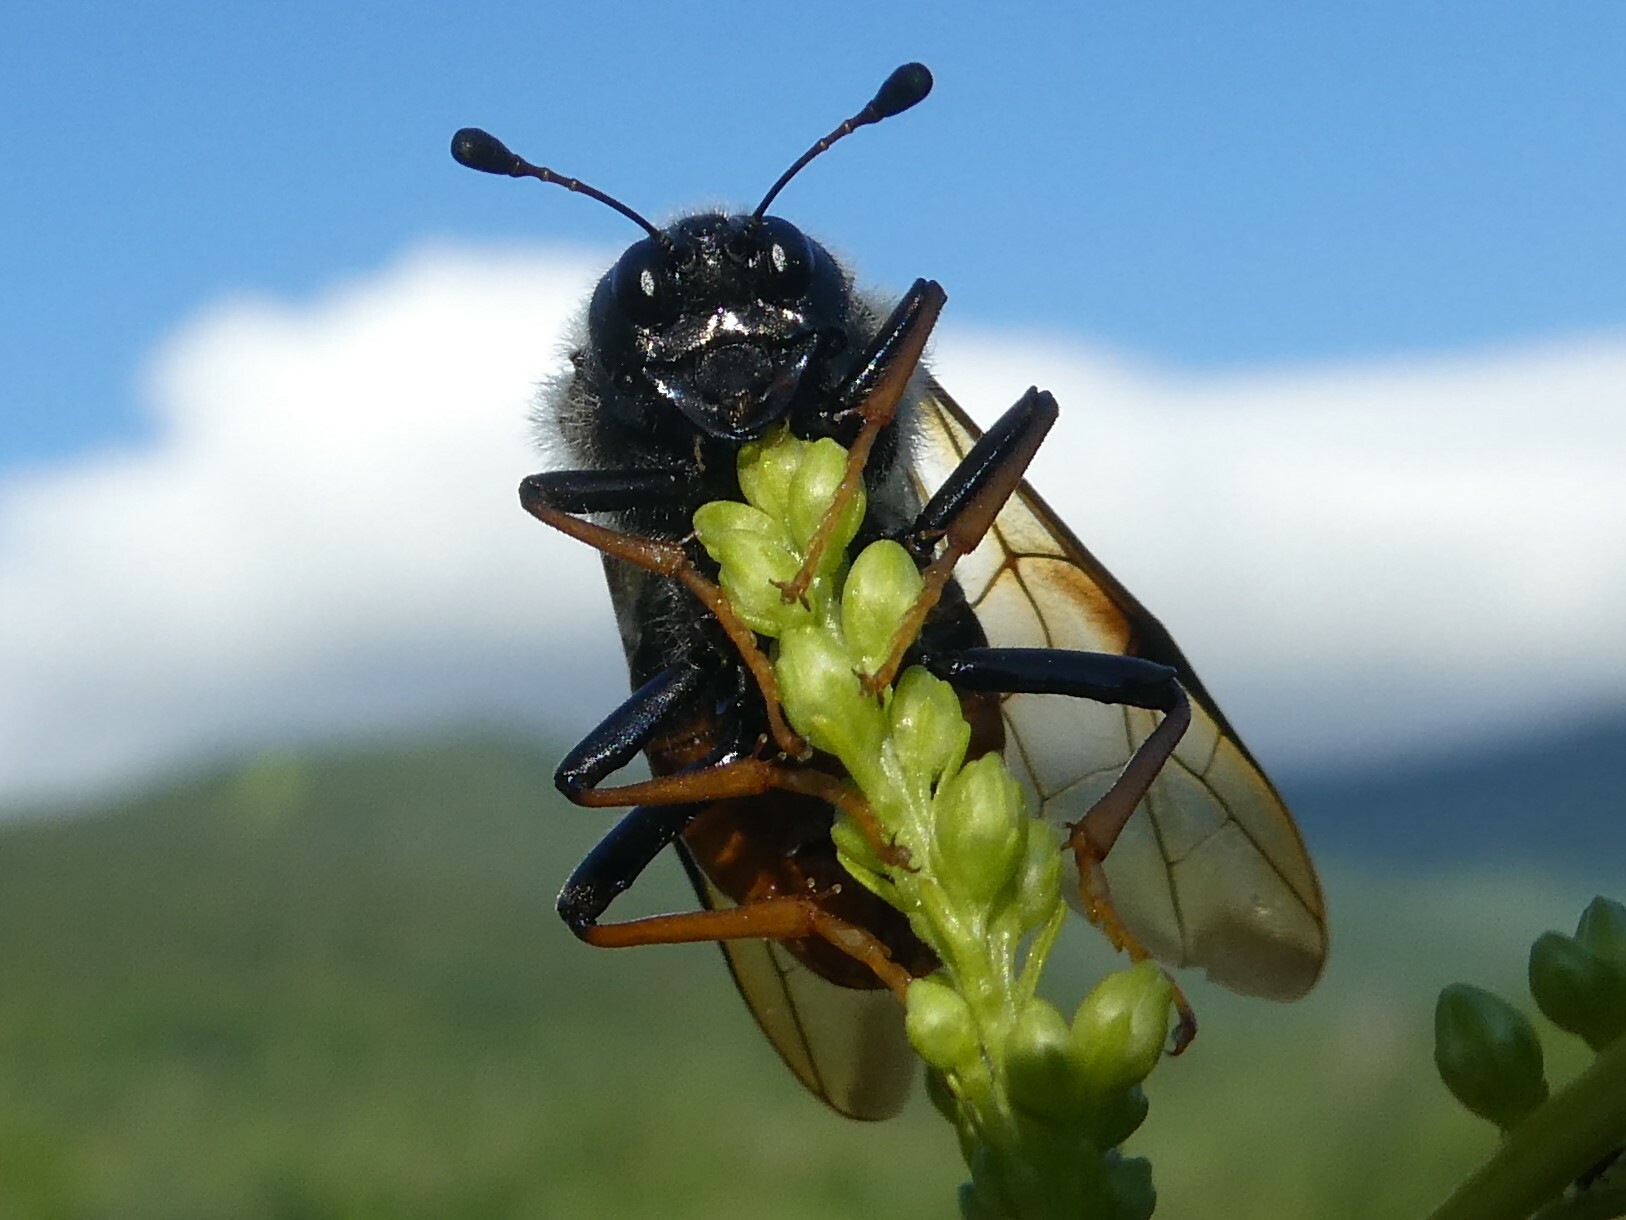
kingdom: Animalia
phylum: Arthropoda
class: Insecta
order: Hymenoptera
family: Cimbicidae
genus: Trichiosoma
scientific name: Trichiosoma triangulum
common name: Giant birch sawfly
